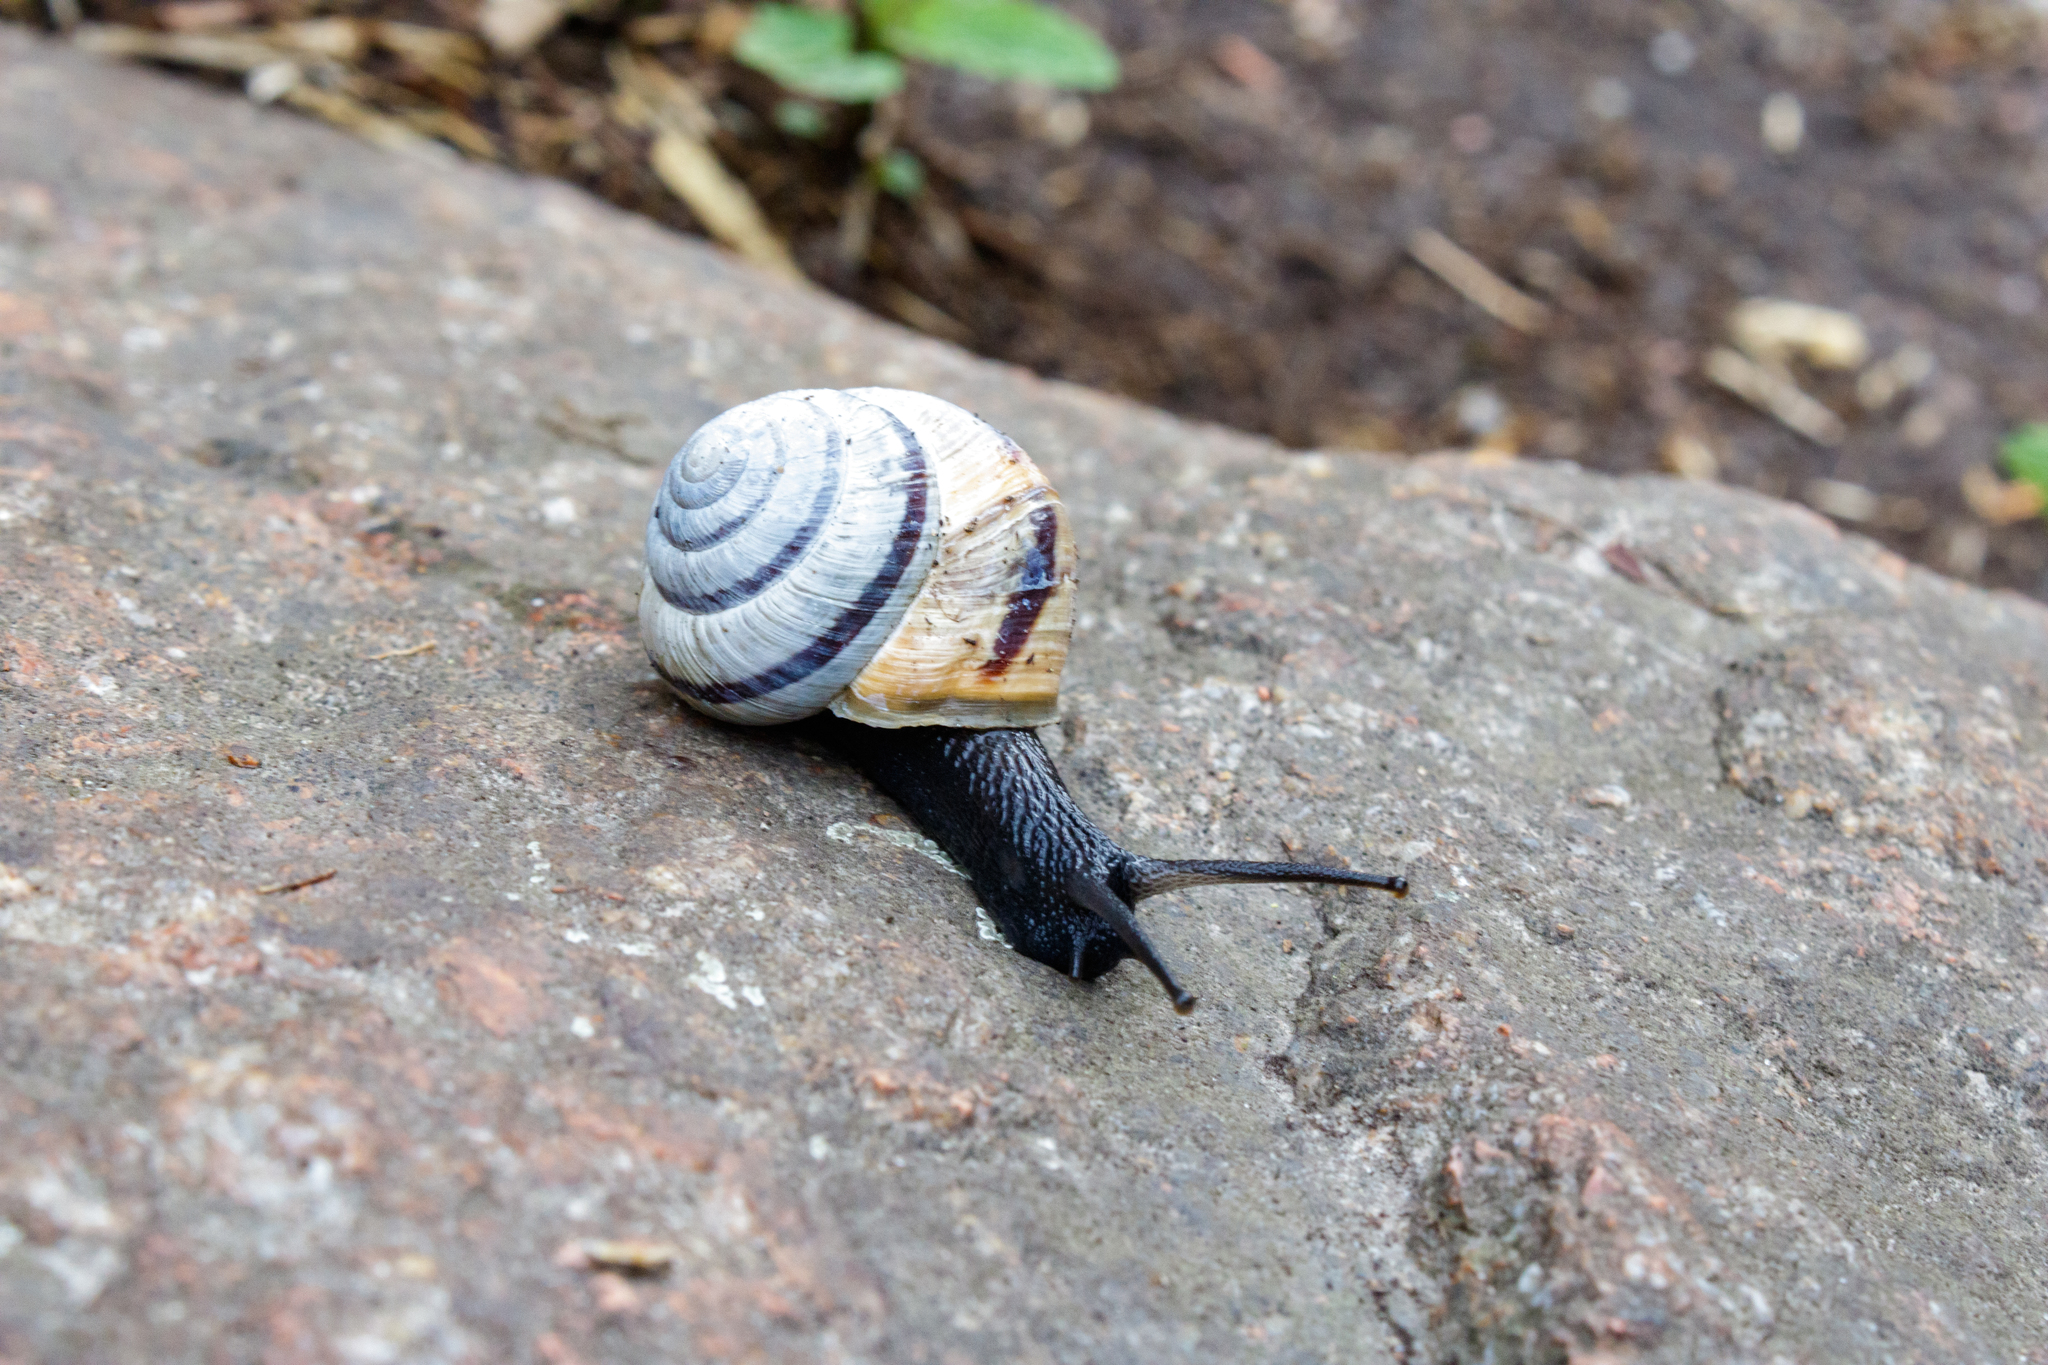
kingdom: Animalia
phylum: Mollusca
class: Gastropoda
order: Stylommatophora
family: Camaenidae
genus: Fruticicola
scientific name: Fruticicola almaatina
